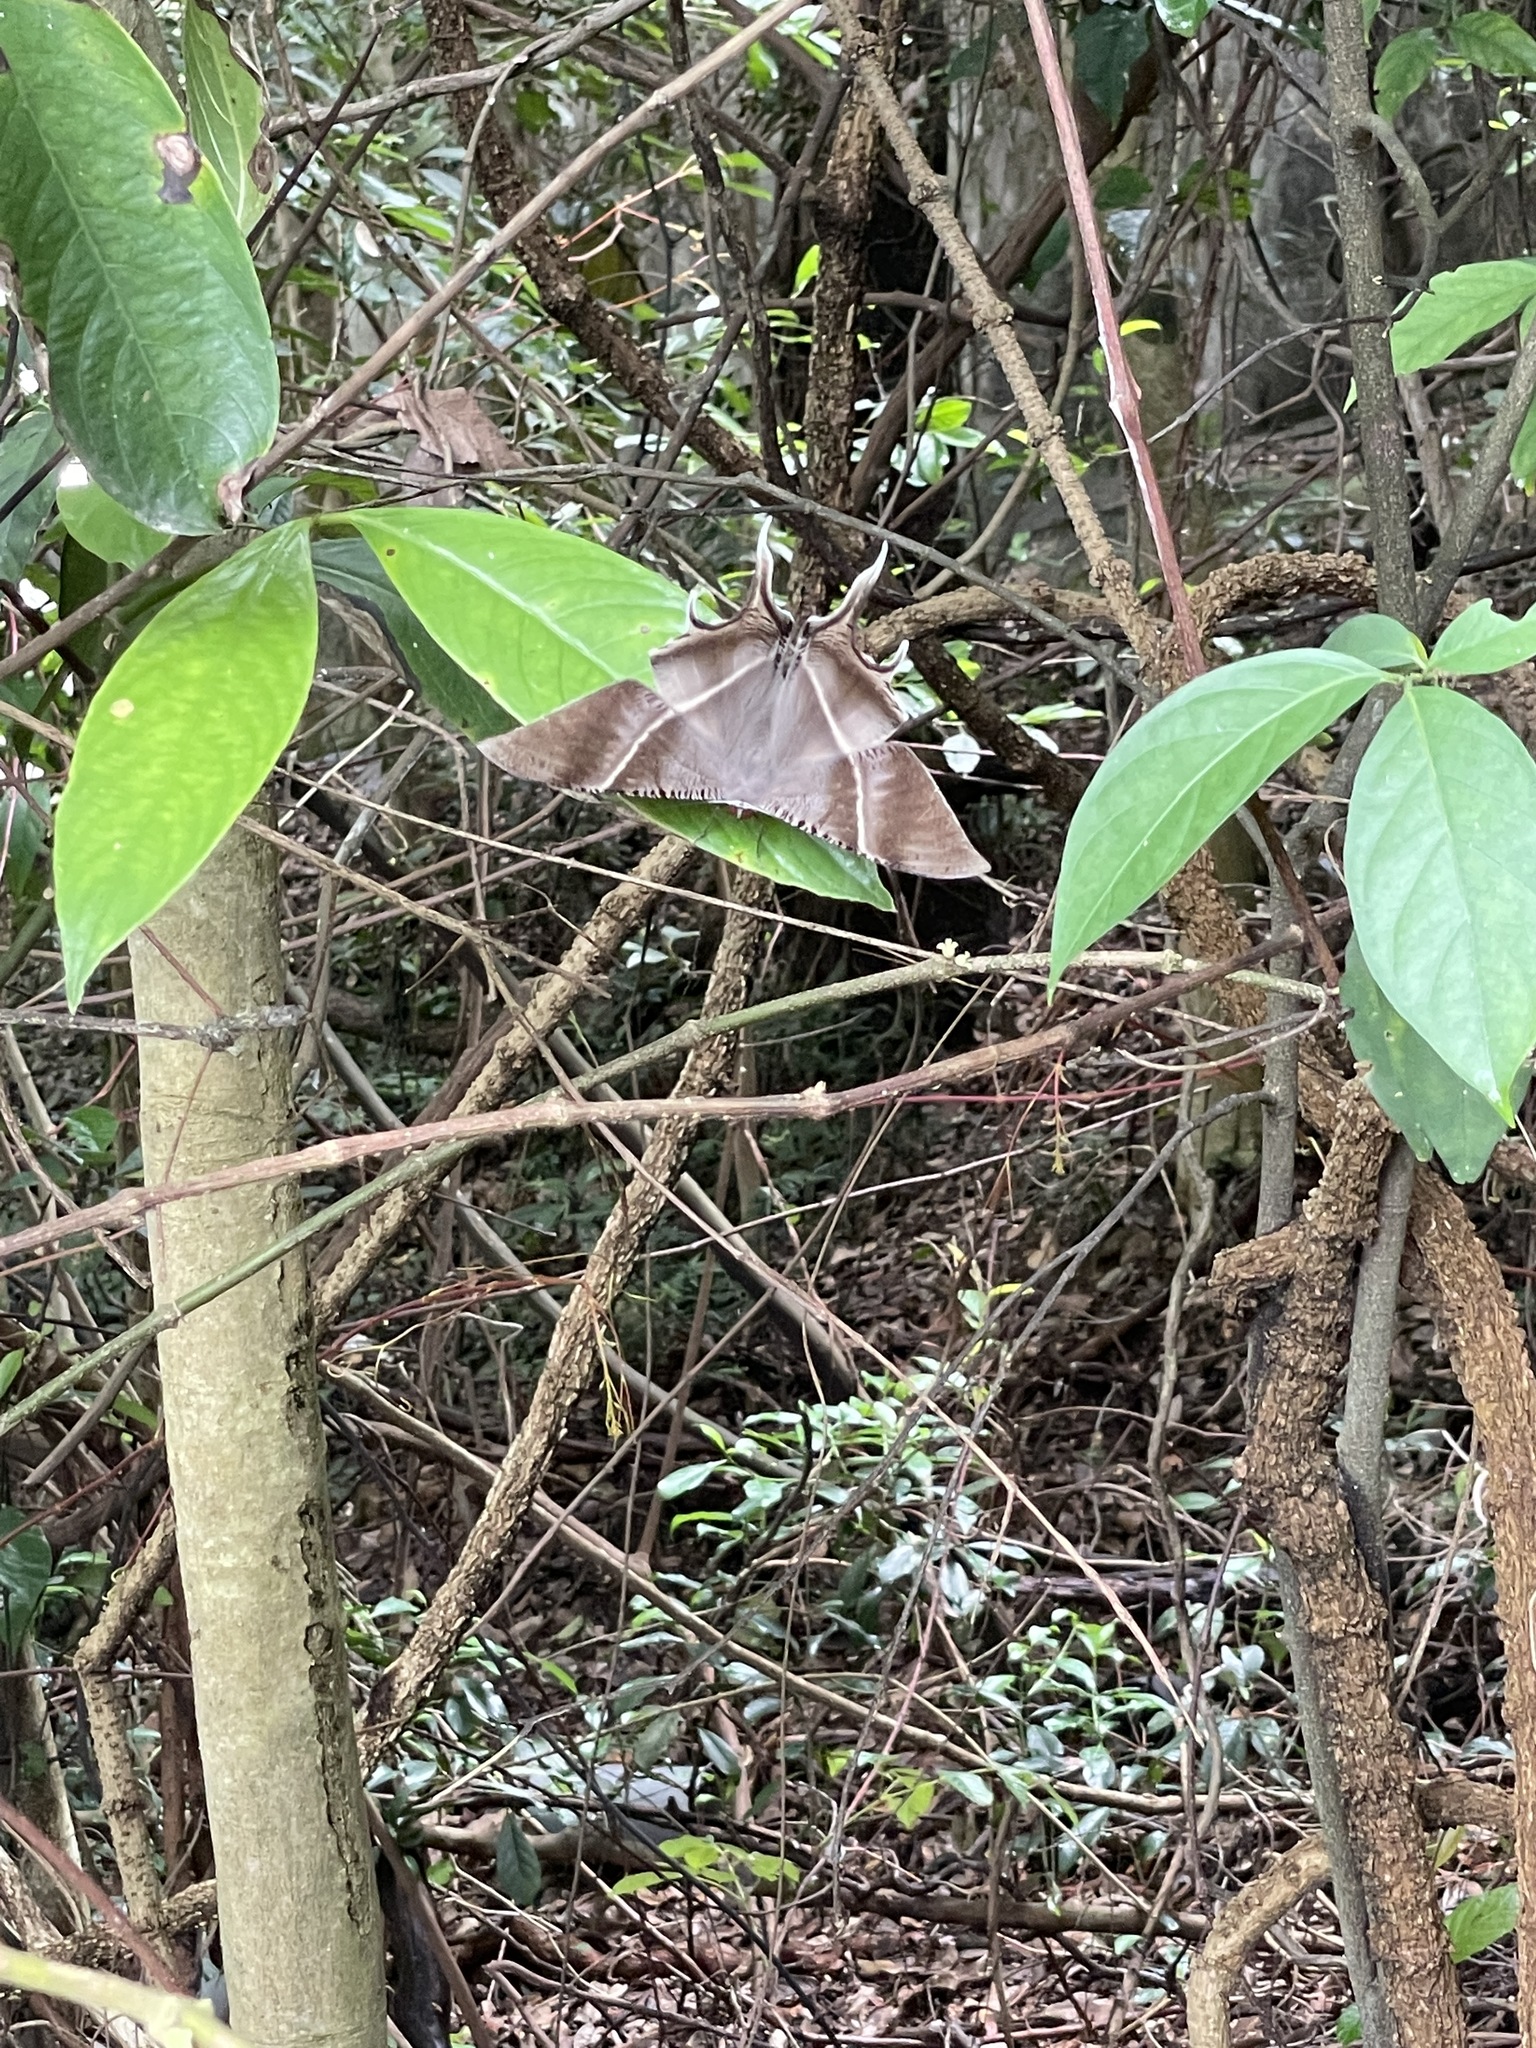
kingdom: Animalia
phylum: Arthropoda
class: Insecta
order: Lepidoptera
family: Uraniidae
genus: Lyssa
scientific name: Lyssa zampa
